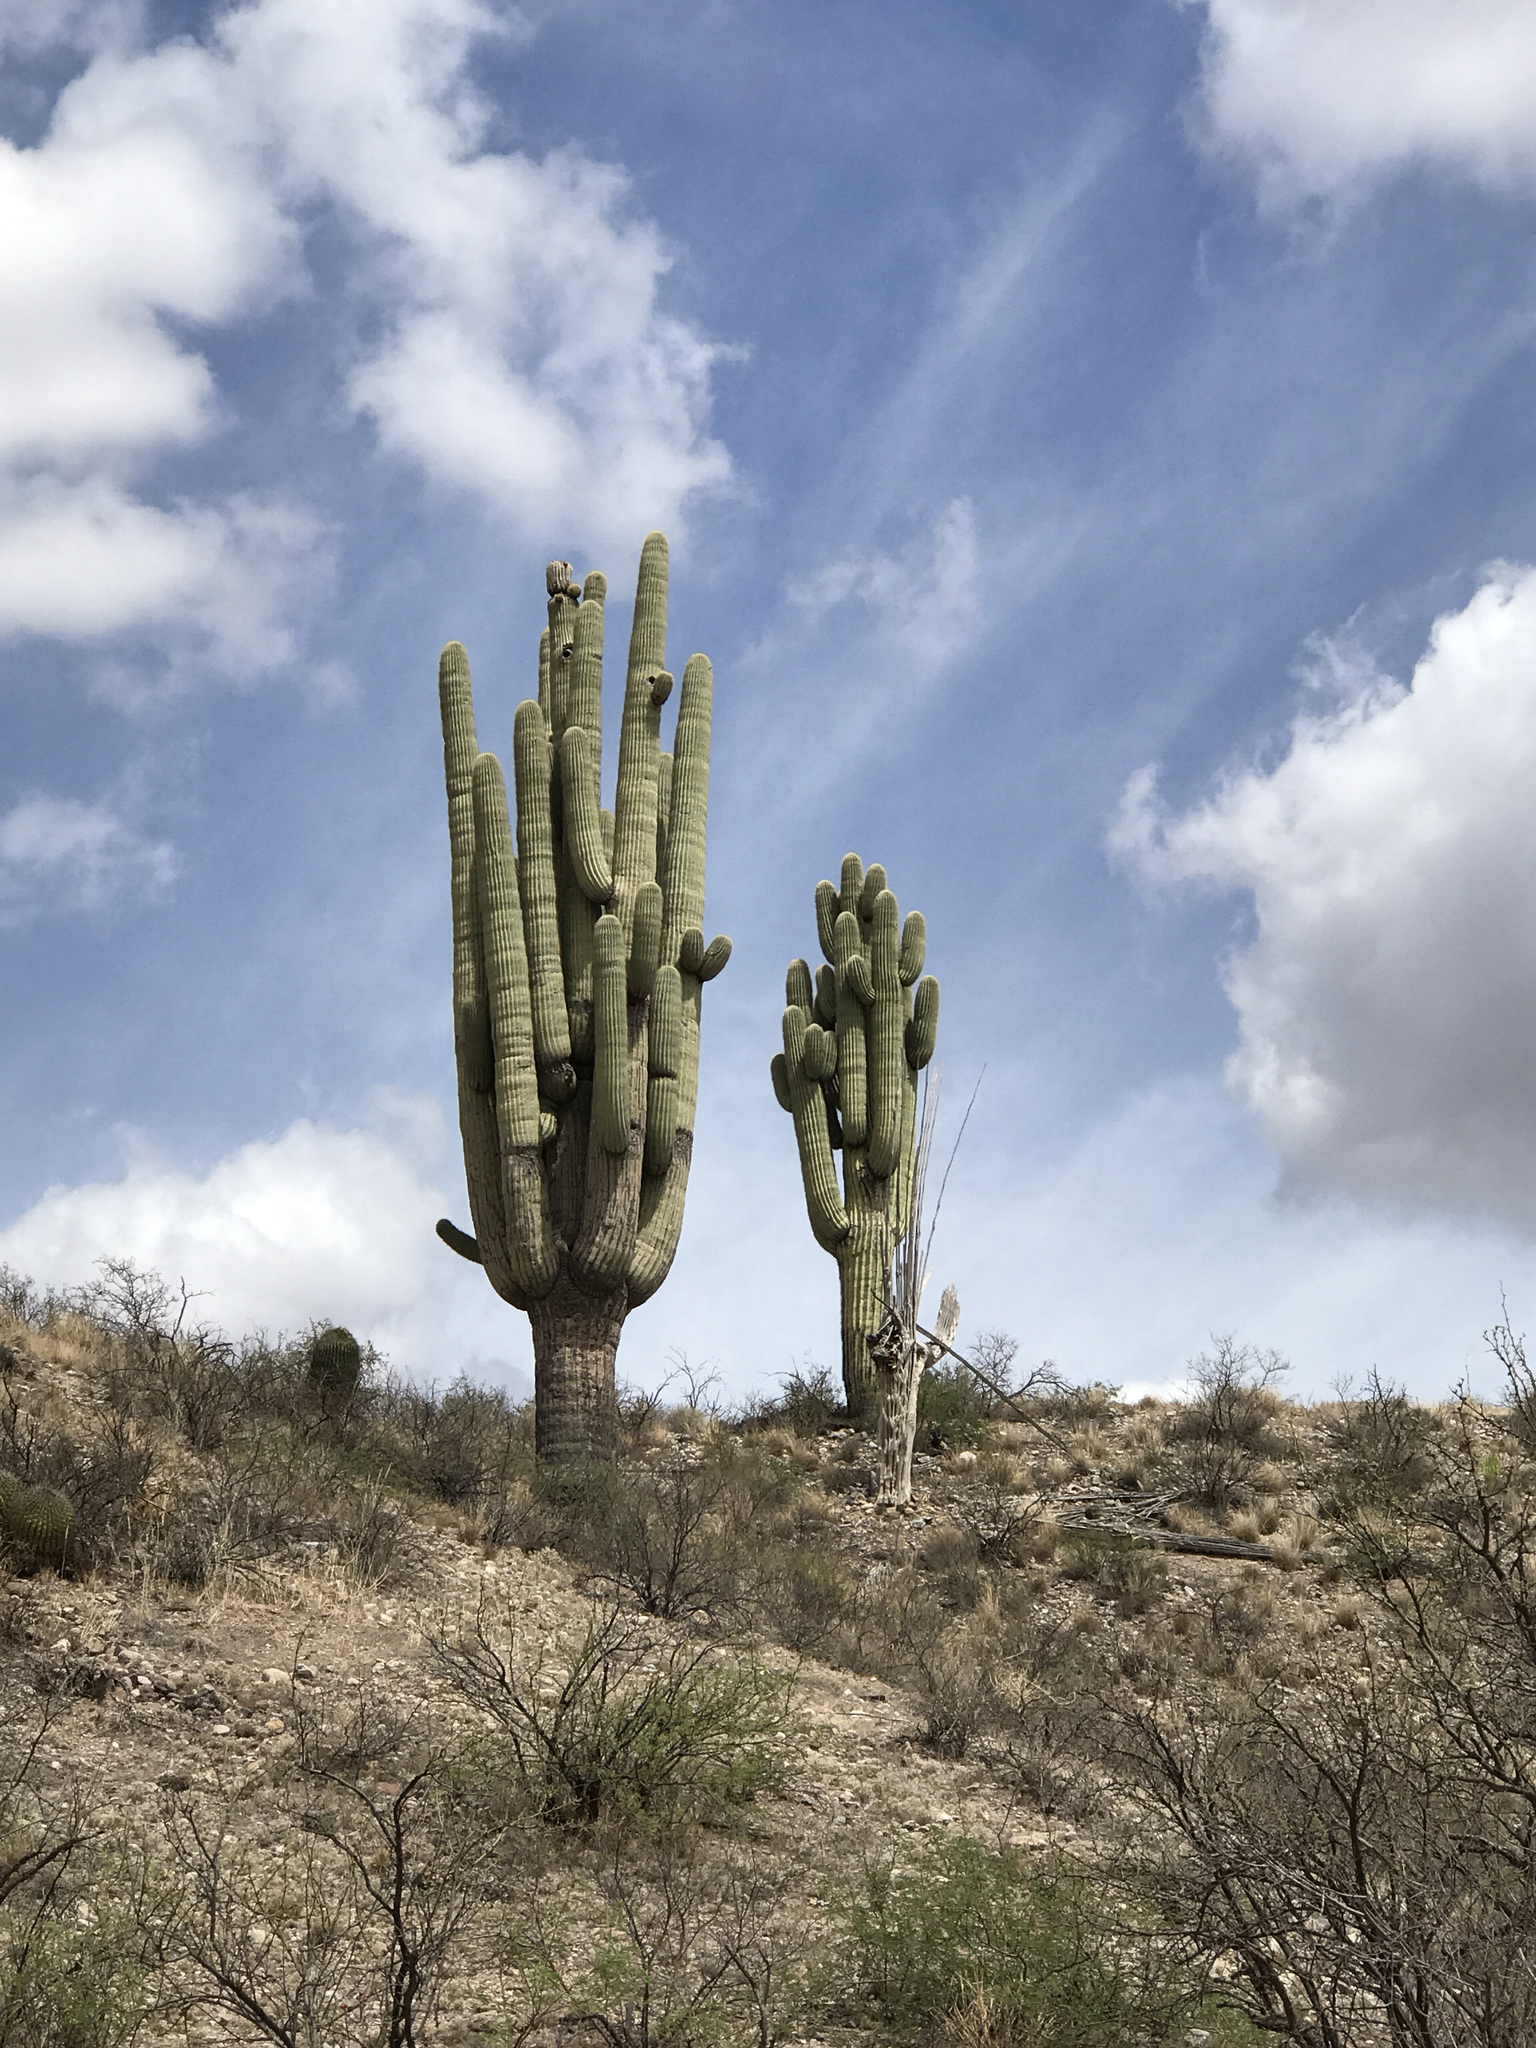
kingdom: Plantae
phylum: Tracheophyta
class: Magnoliopsida
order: Caryophyllales
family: Cactaceae
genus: Carnegiea
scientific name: Carnegiea gigantea
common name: Saguaro
